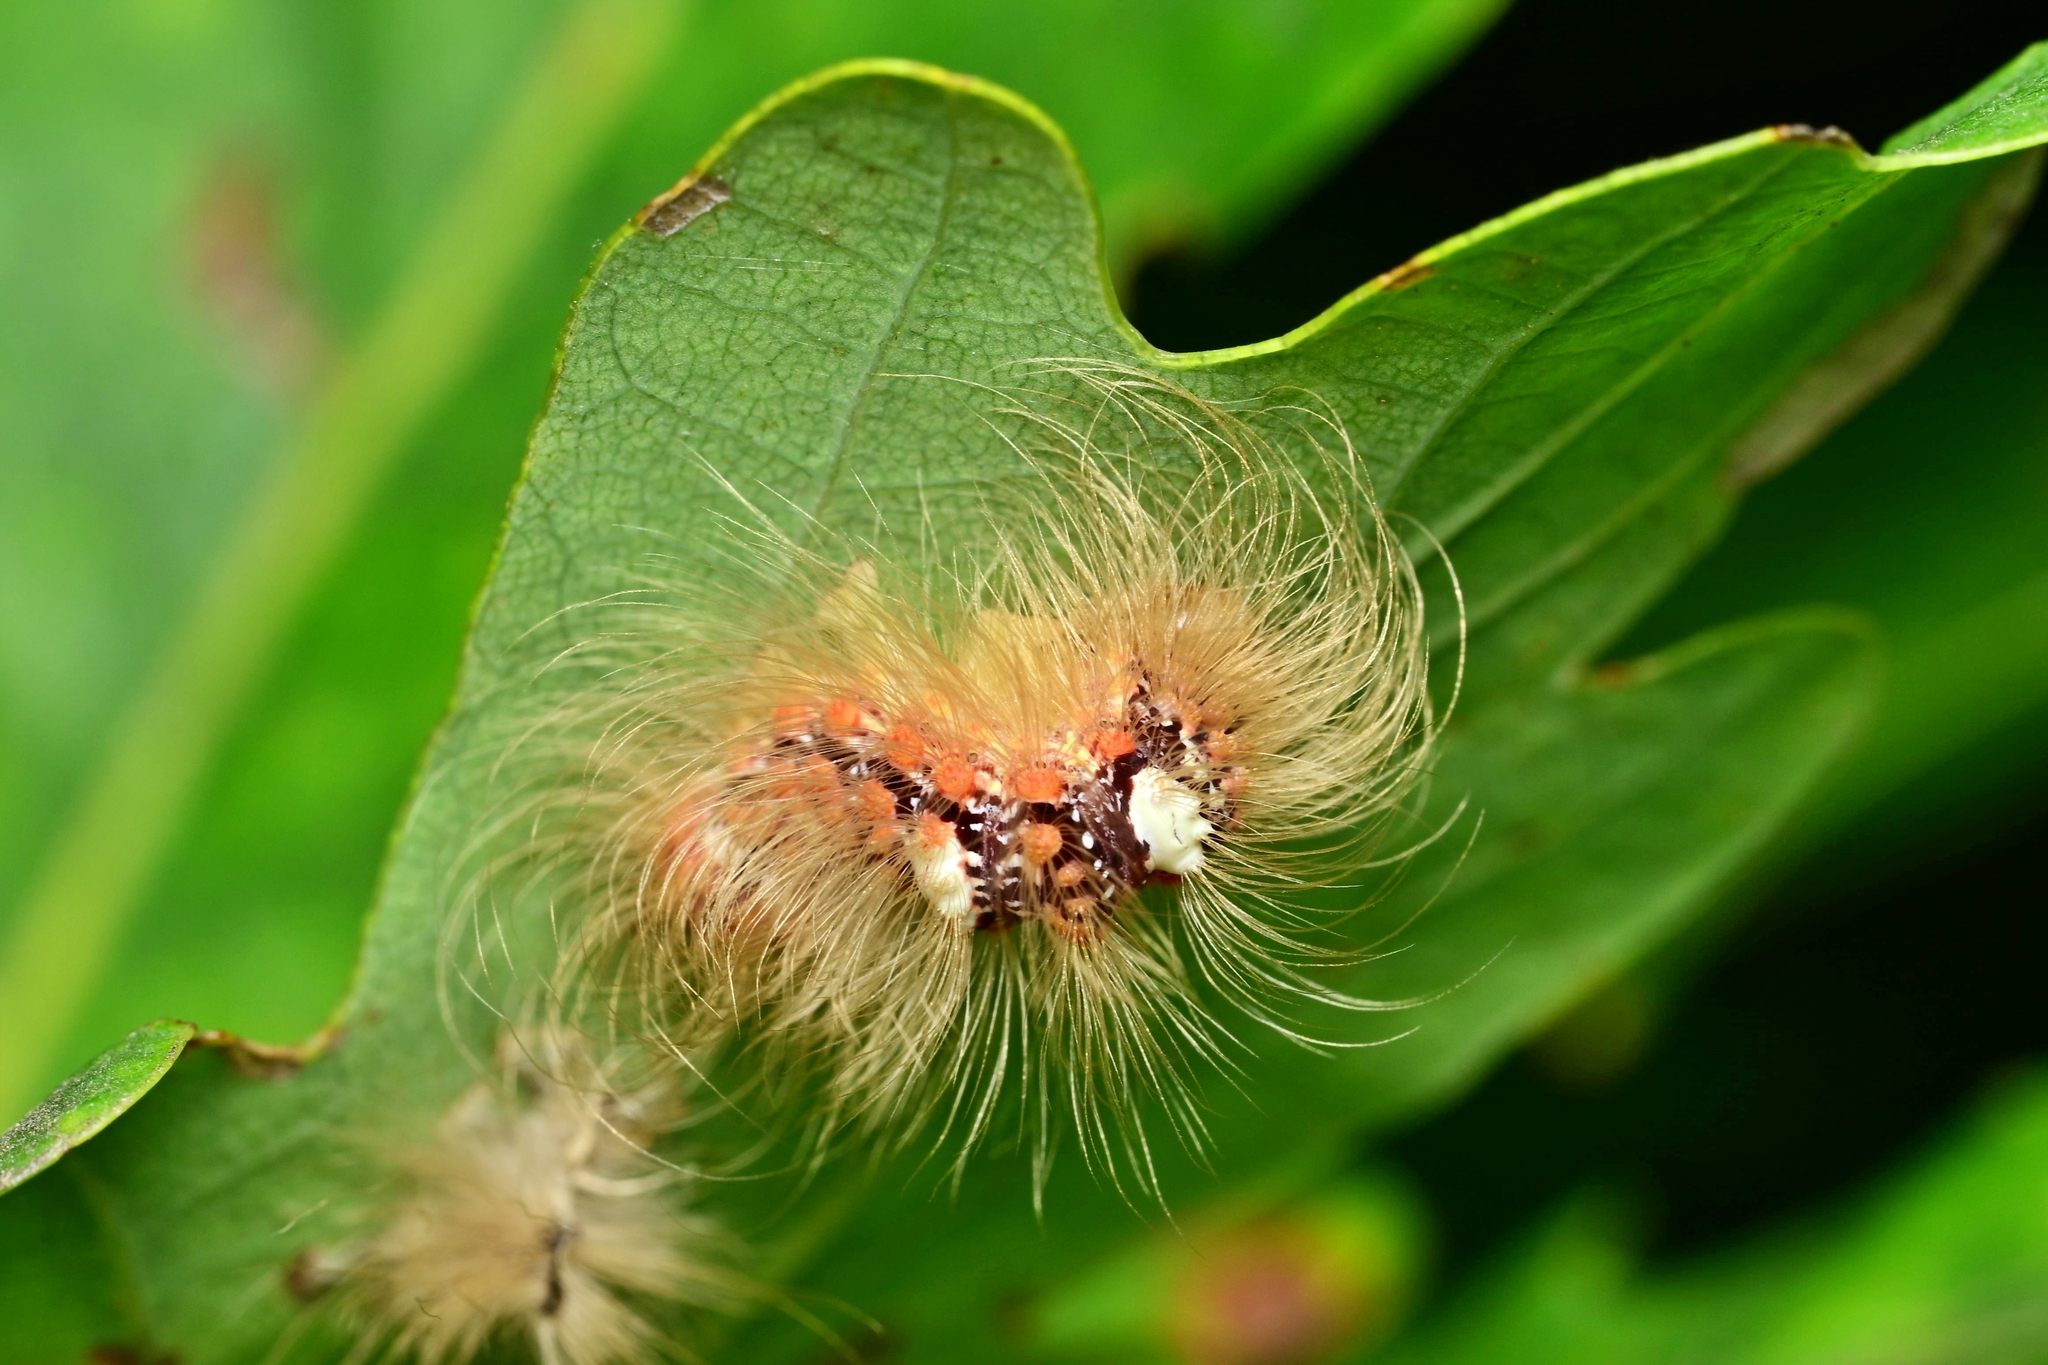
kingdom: Animalia
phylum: Arthropoda
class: Insecta
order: Lepidoptera
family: Noctuidae
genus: Moma
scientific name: Moma alpium
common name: Scarce merveille du jour
